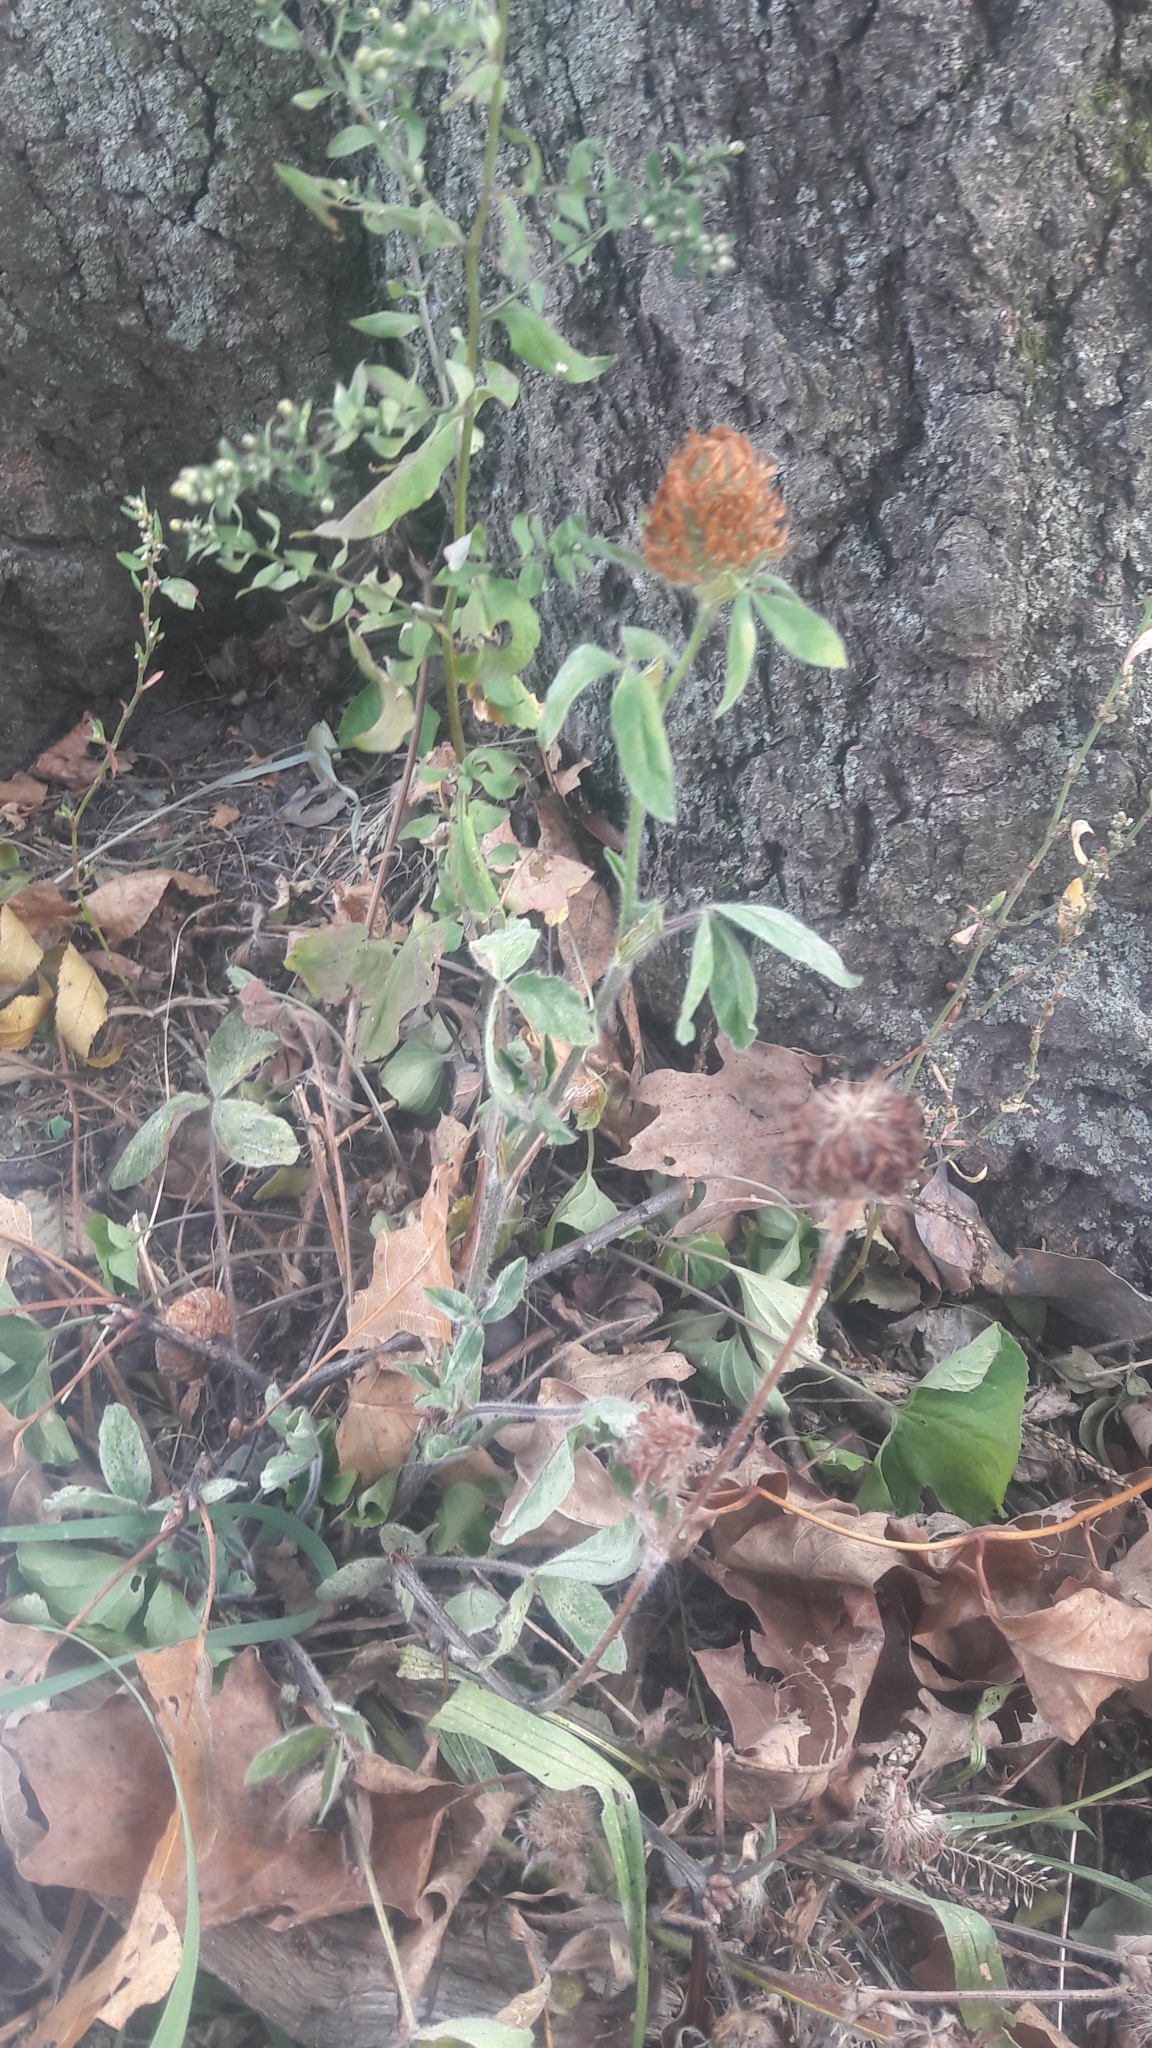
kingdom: Plantae
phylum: Tracheophyta
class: Magnoliopsida
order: Fabales
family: Fabaceae
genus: Trifolium
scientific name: Trifolium pratense
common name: Red clover
